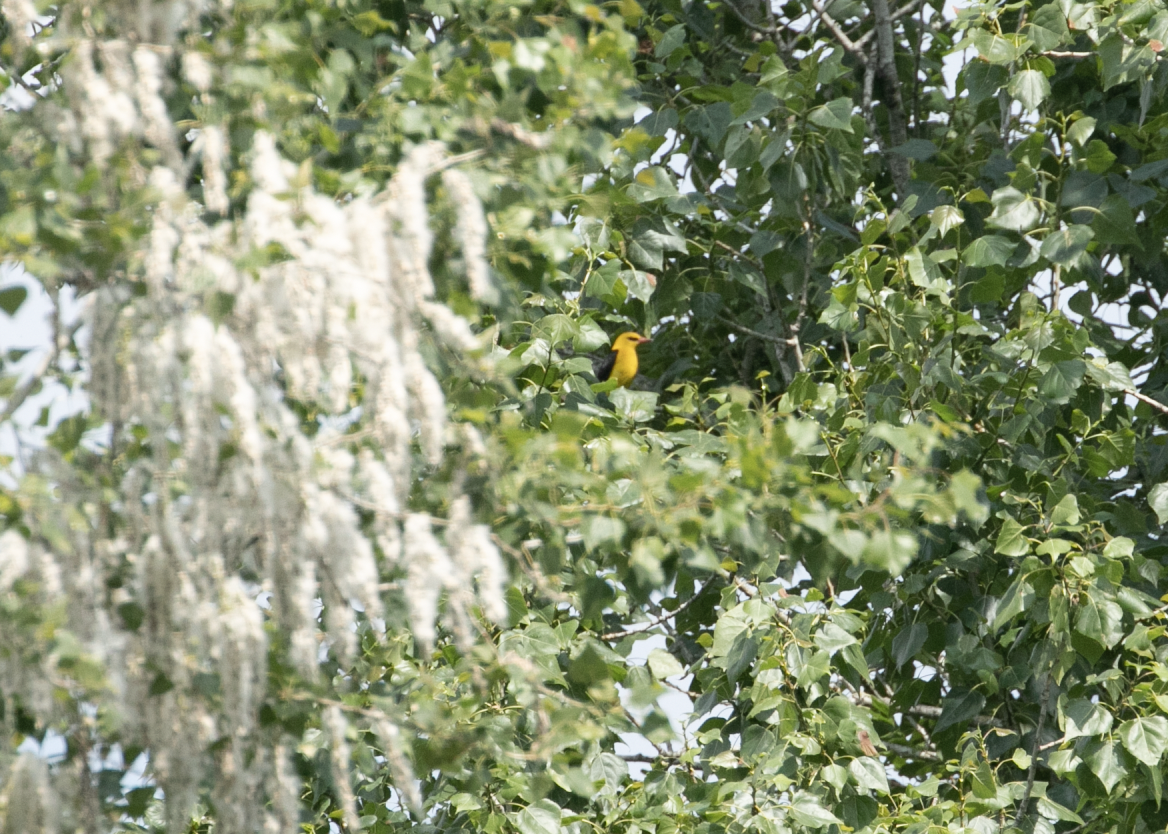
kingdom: Animalia
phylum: Chordata
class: Aves
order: Passeriformes
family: Oriolidae
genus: Oriolus
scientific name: Oriolus oriolus
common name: Eurasian golden oriole
